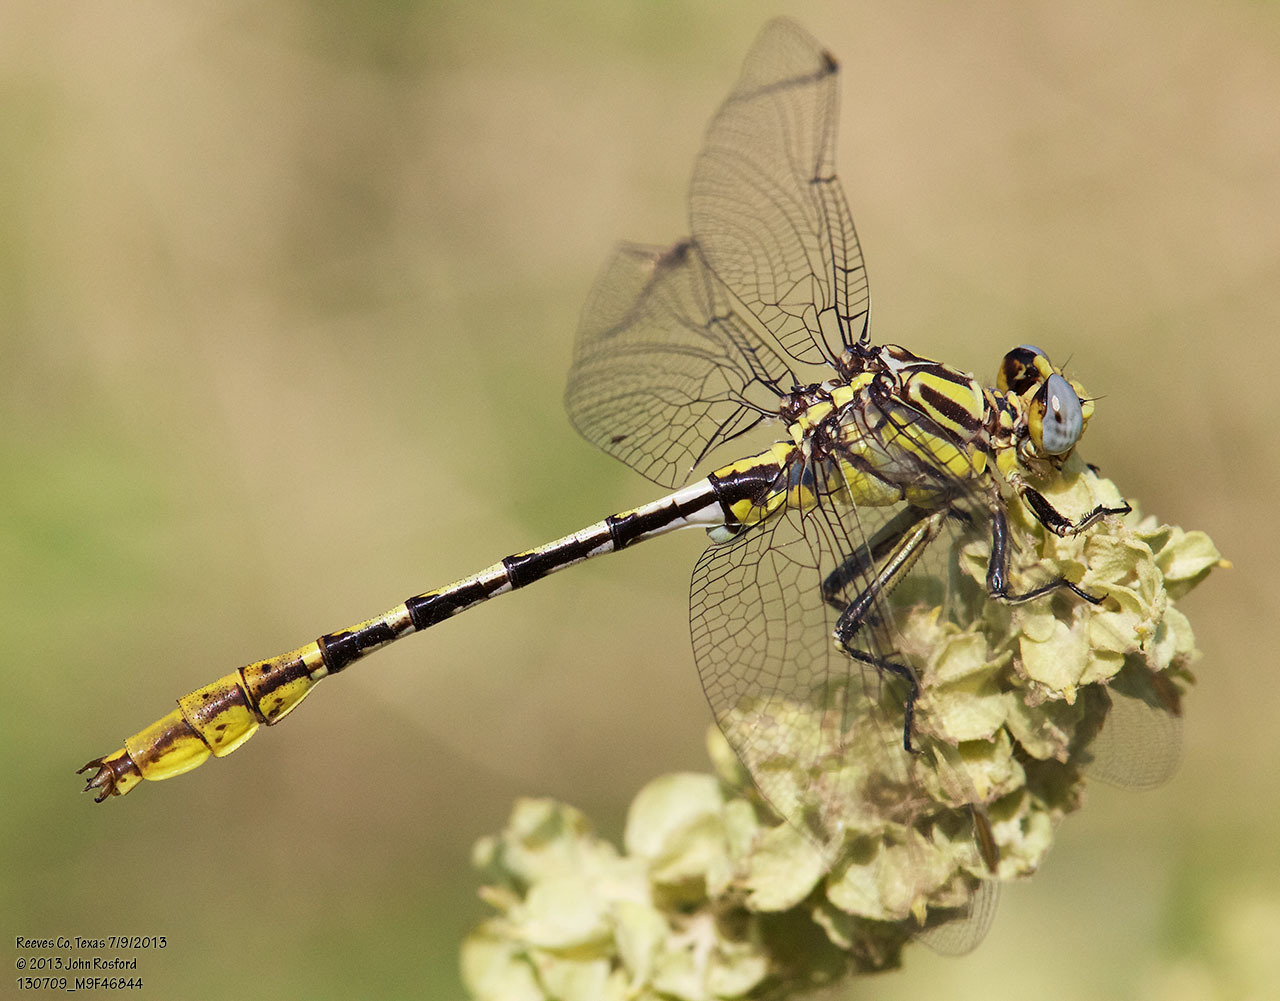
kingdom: Animalia
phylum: Arthropoda
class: Insecta
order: Odonata
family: Gomphidae
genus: Phanogomphus
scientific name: Phanogomphus militaris
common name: Sulphur-tipped clubtail
